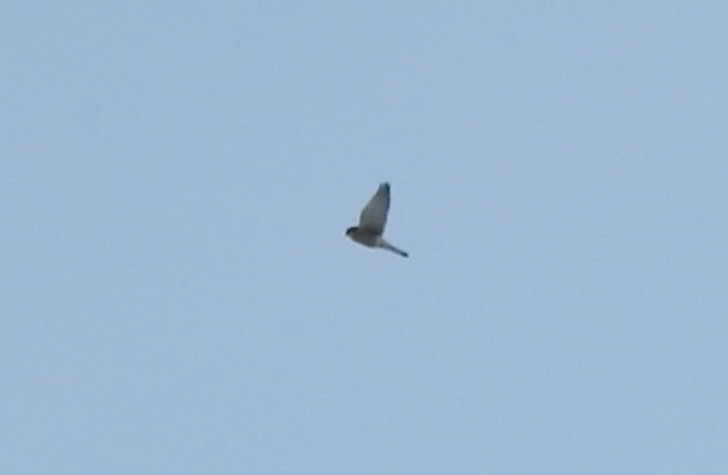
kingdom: Animalia
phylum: Chordata
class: Aves
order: Falconiformes
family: Falconidae
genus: Falco
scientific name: Falco tinnunculus
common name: Common kestrel
